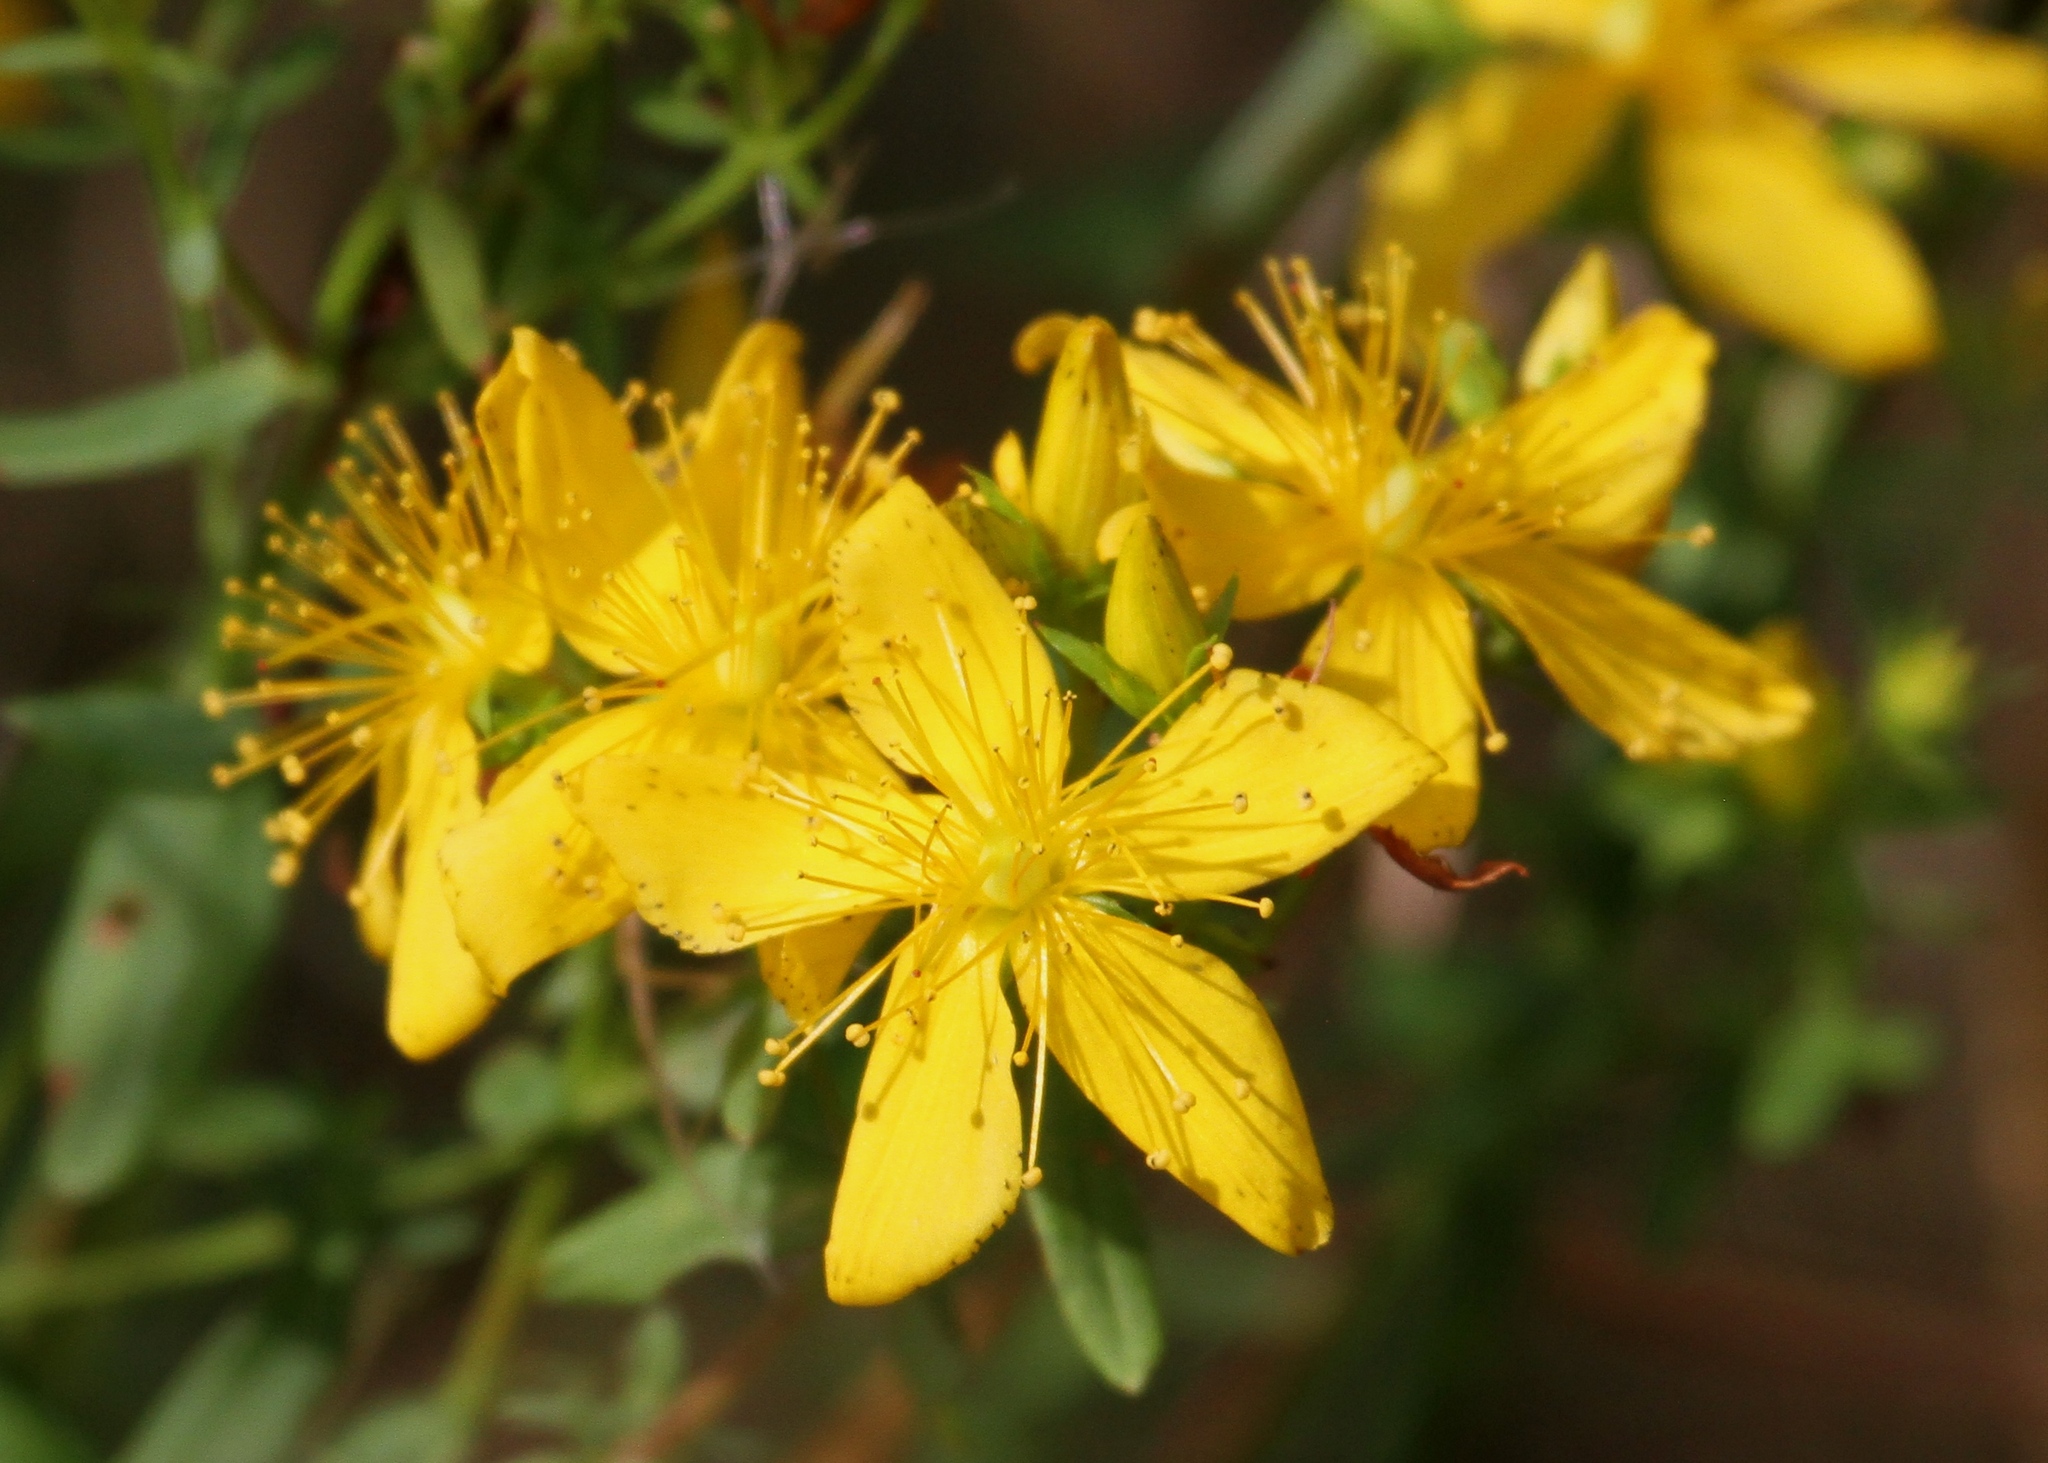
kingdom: Plantae
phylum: Tracheophyta
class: Magnoliopsida
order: Malpighiales
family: Hypericaceae
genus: Hypericum
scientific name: Hypericum perforatum
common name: Common st. johnswort
